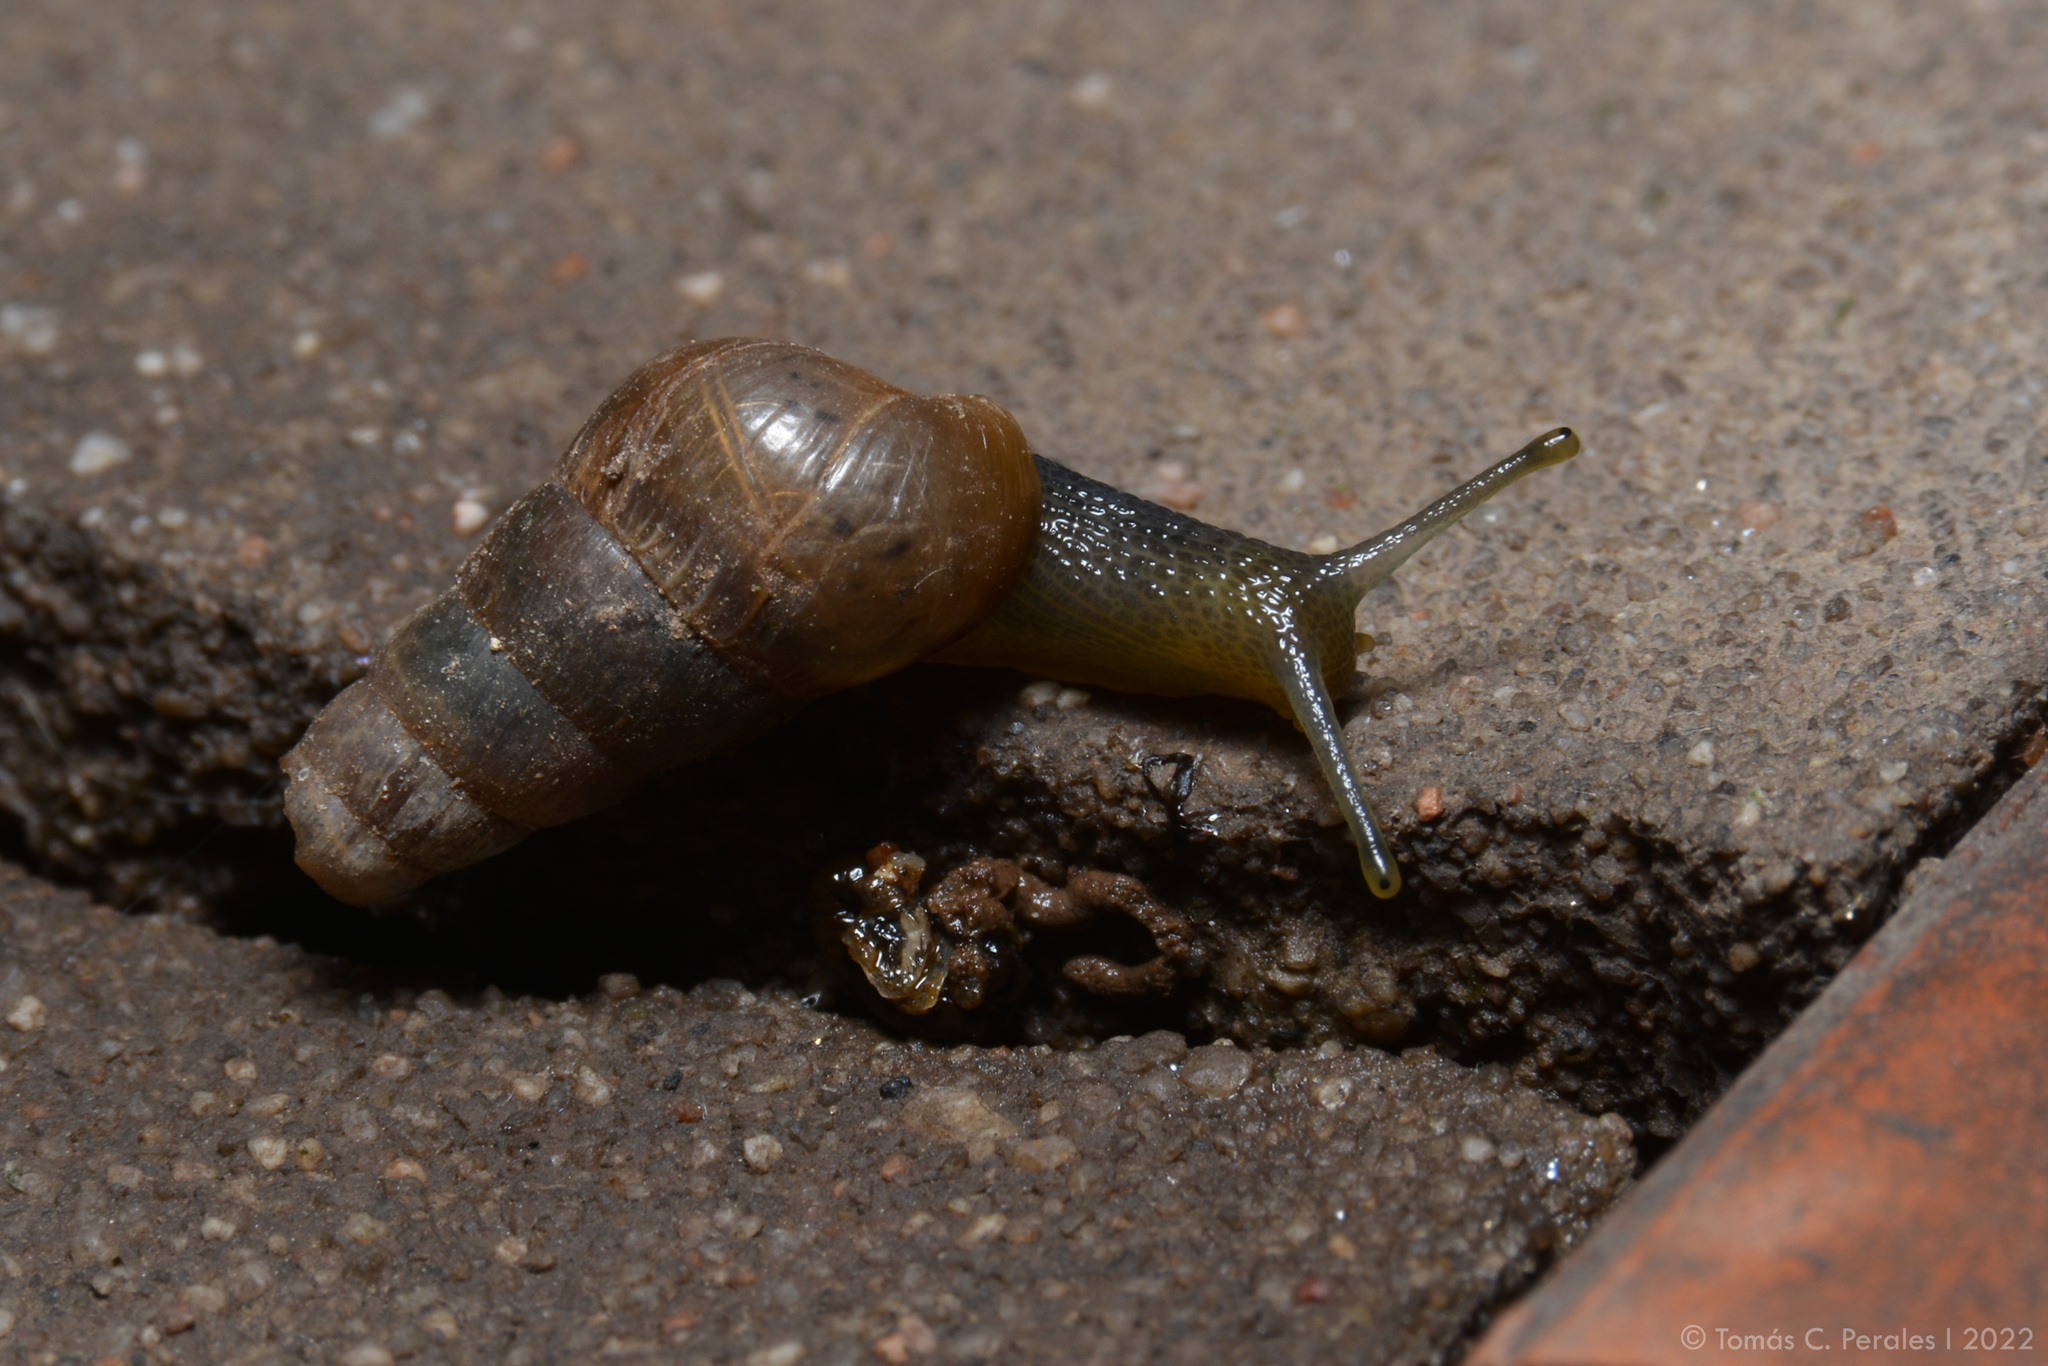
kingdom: Animalia
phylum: Mollusca
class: Gastropoda
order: Stylommatophora
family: Achatinidae
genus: Rumina
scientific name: Rumina decollata
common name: Decollate snail
